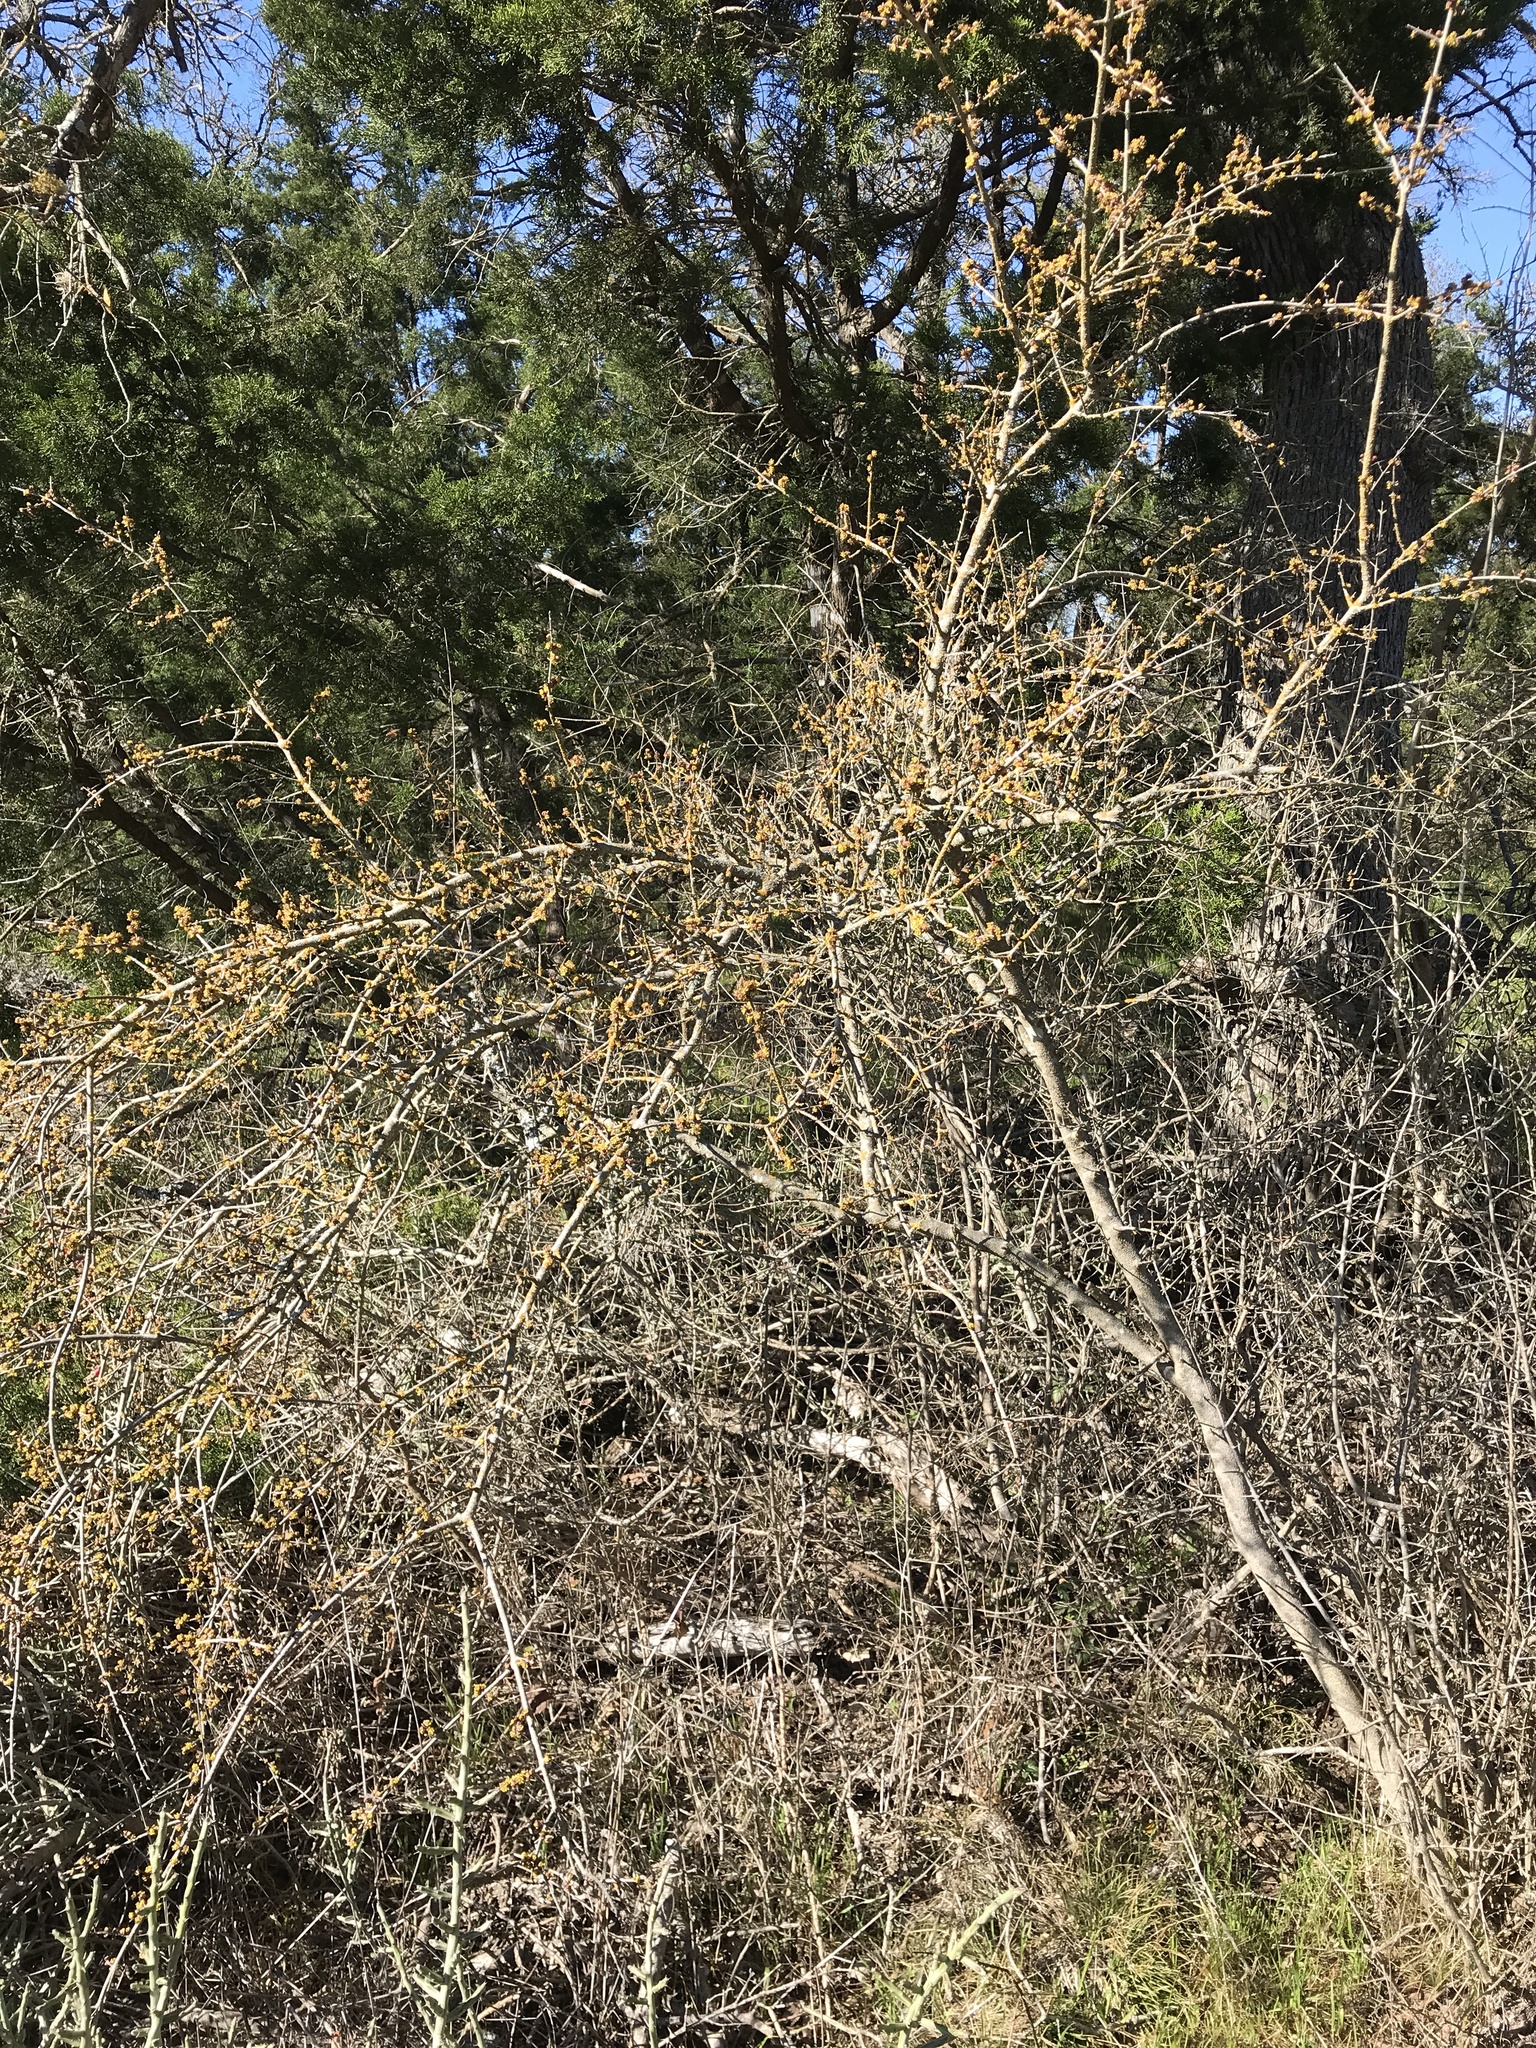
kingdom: Plantae
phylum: Tracheophyta
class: Magnoliopsida
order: Lamiales
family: Oleaceae
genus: Forestiera
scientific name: Forestiera pubescens
